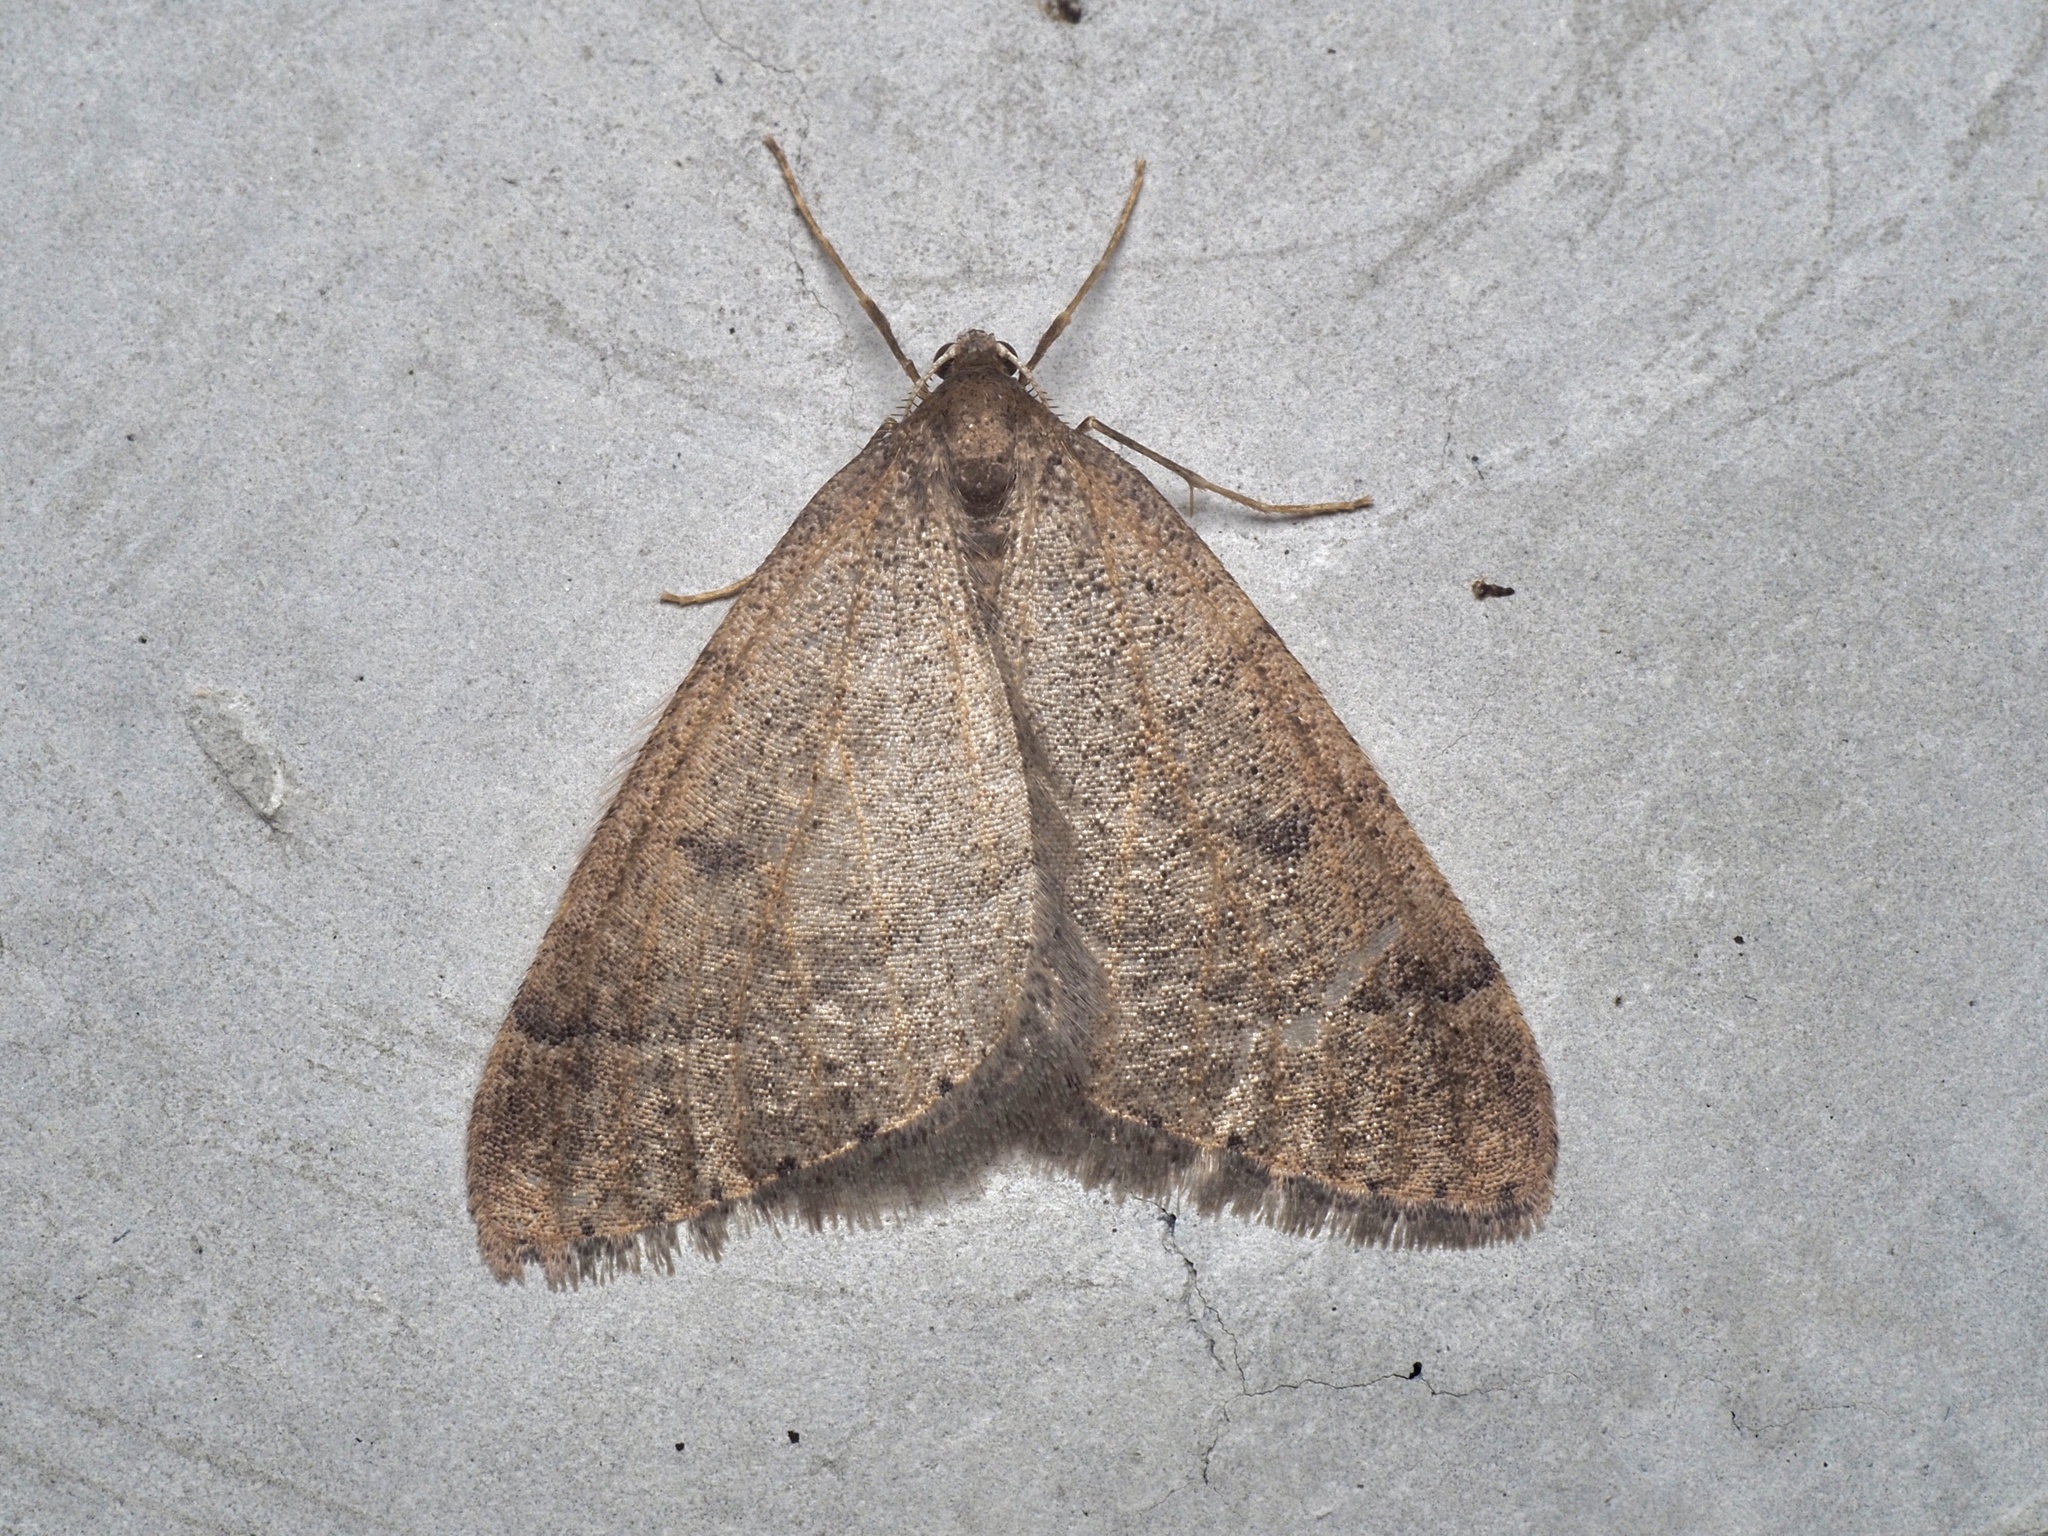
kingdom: Animalia
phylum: Arthropoda
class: Insecta
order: Lepidoptera
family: Geometridae
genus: Theria
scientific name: Theria primaria
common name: Early moth
